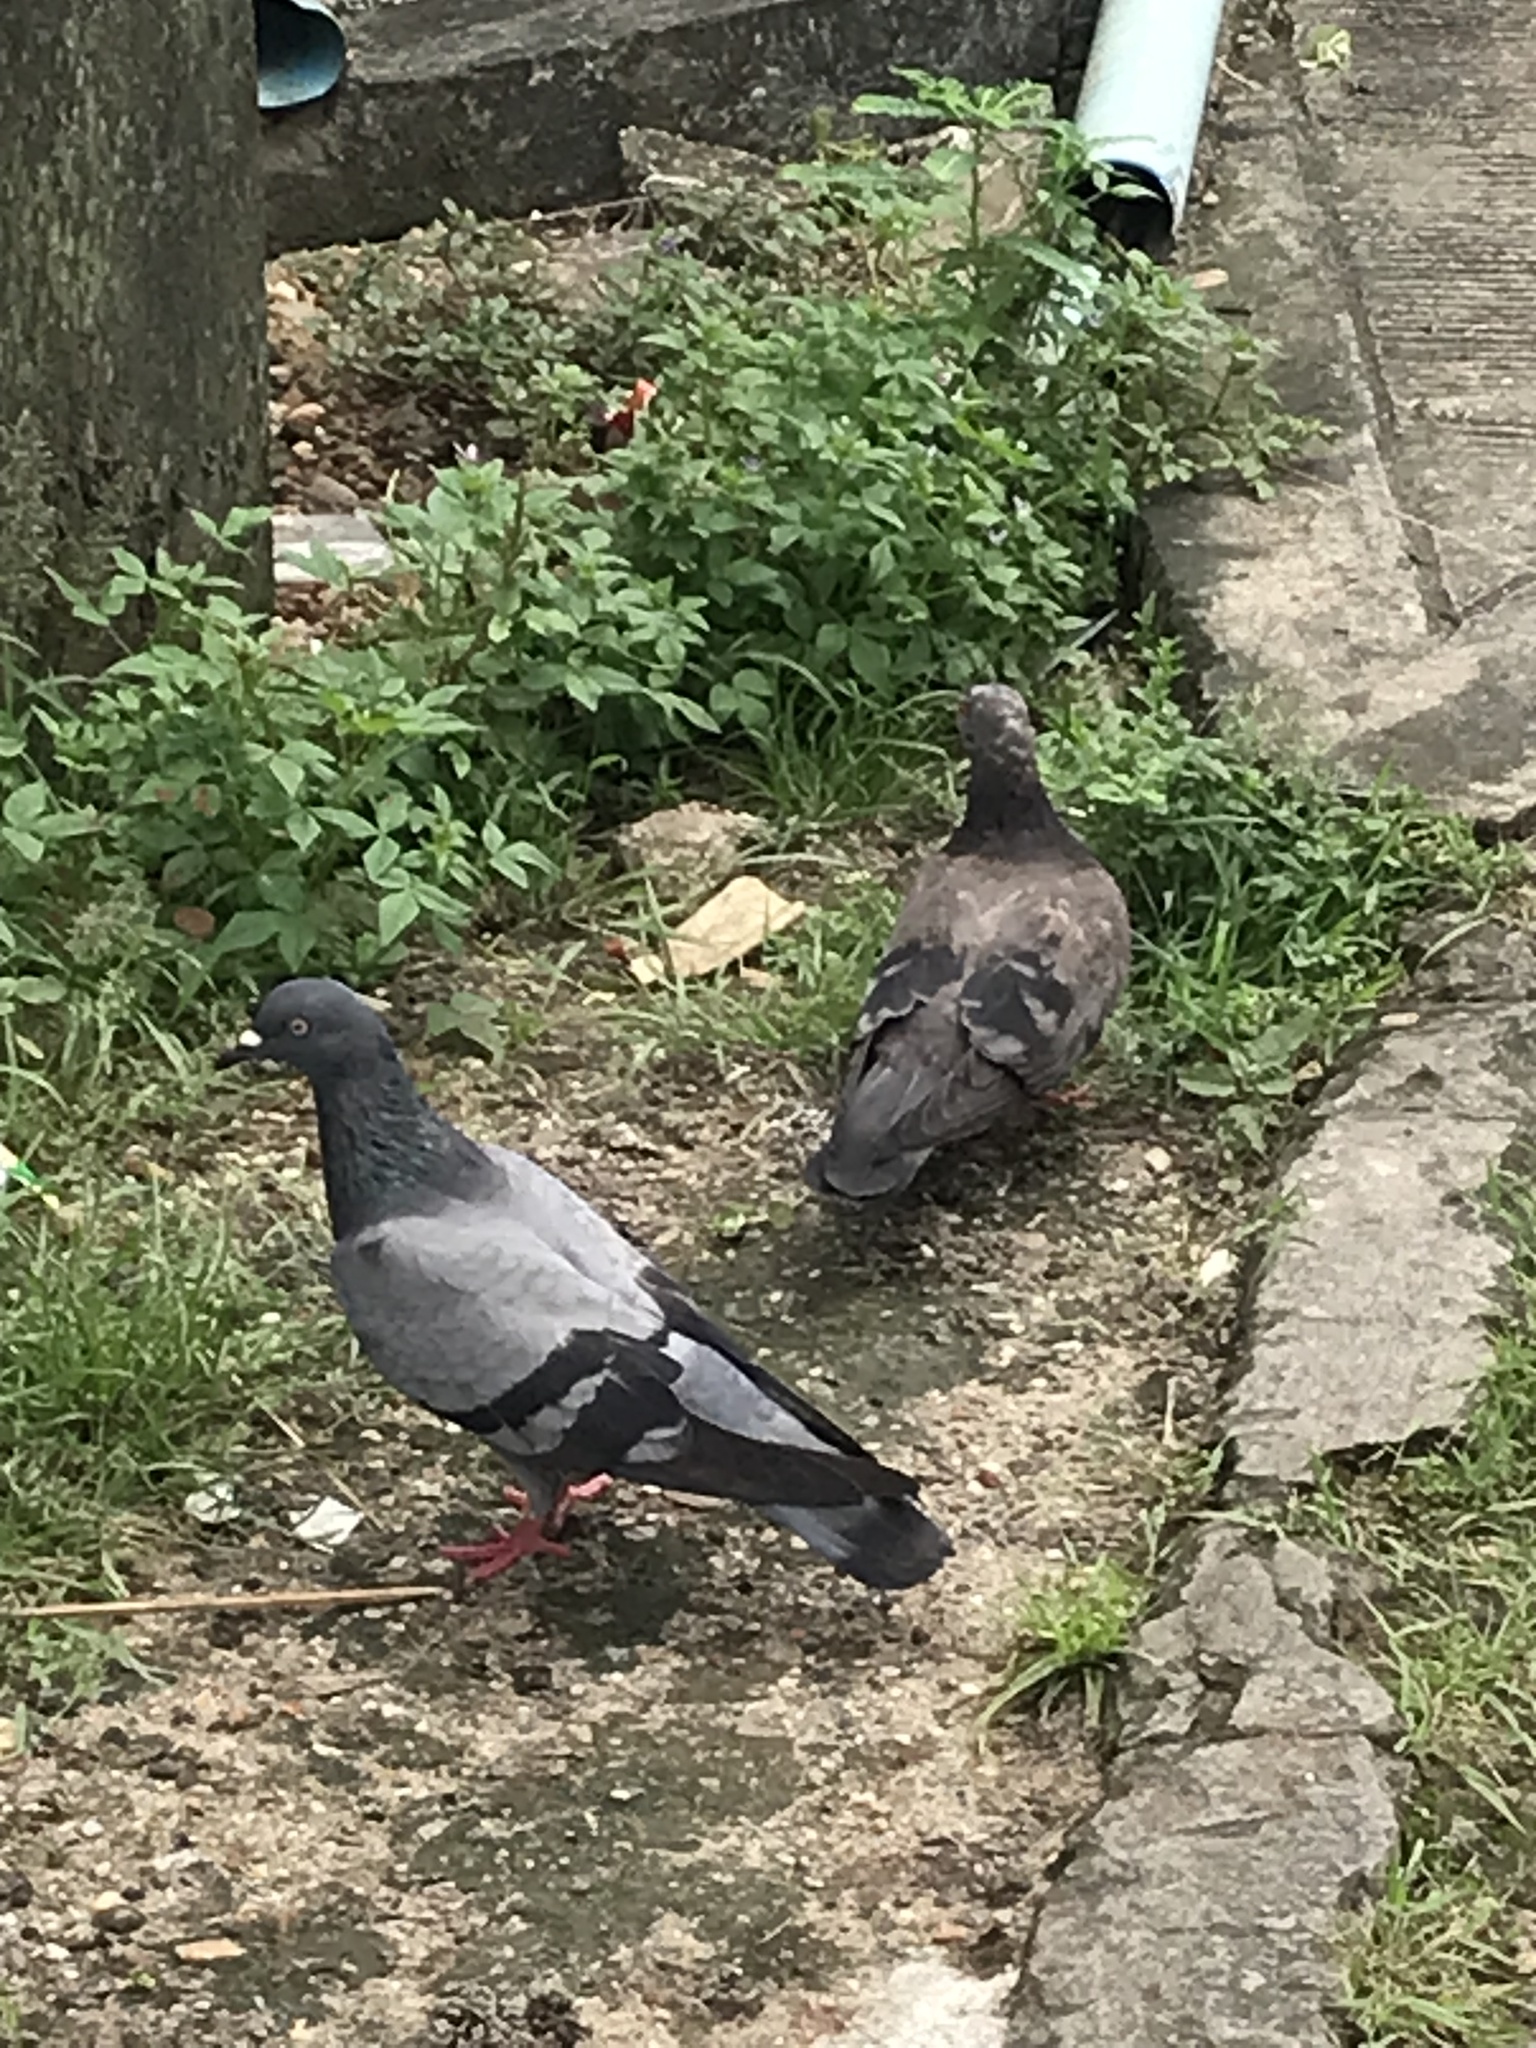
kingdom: Animalia
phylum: Chordata
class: Aves
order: Columbiformes
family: Columbidae
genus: Columba
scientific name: Columba livia
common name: Rock pigeon
